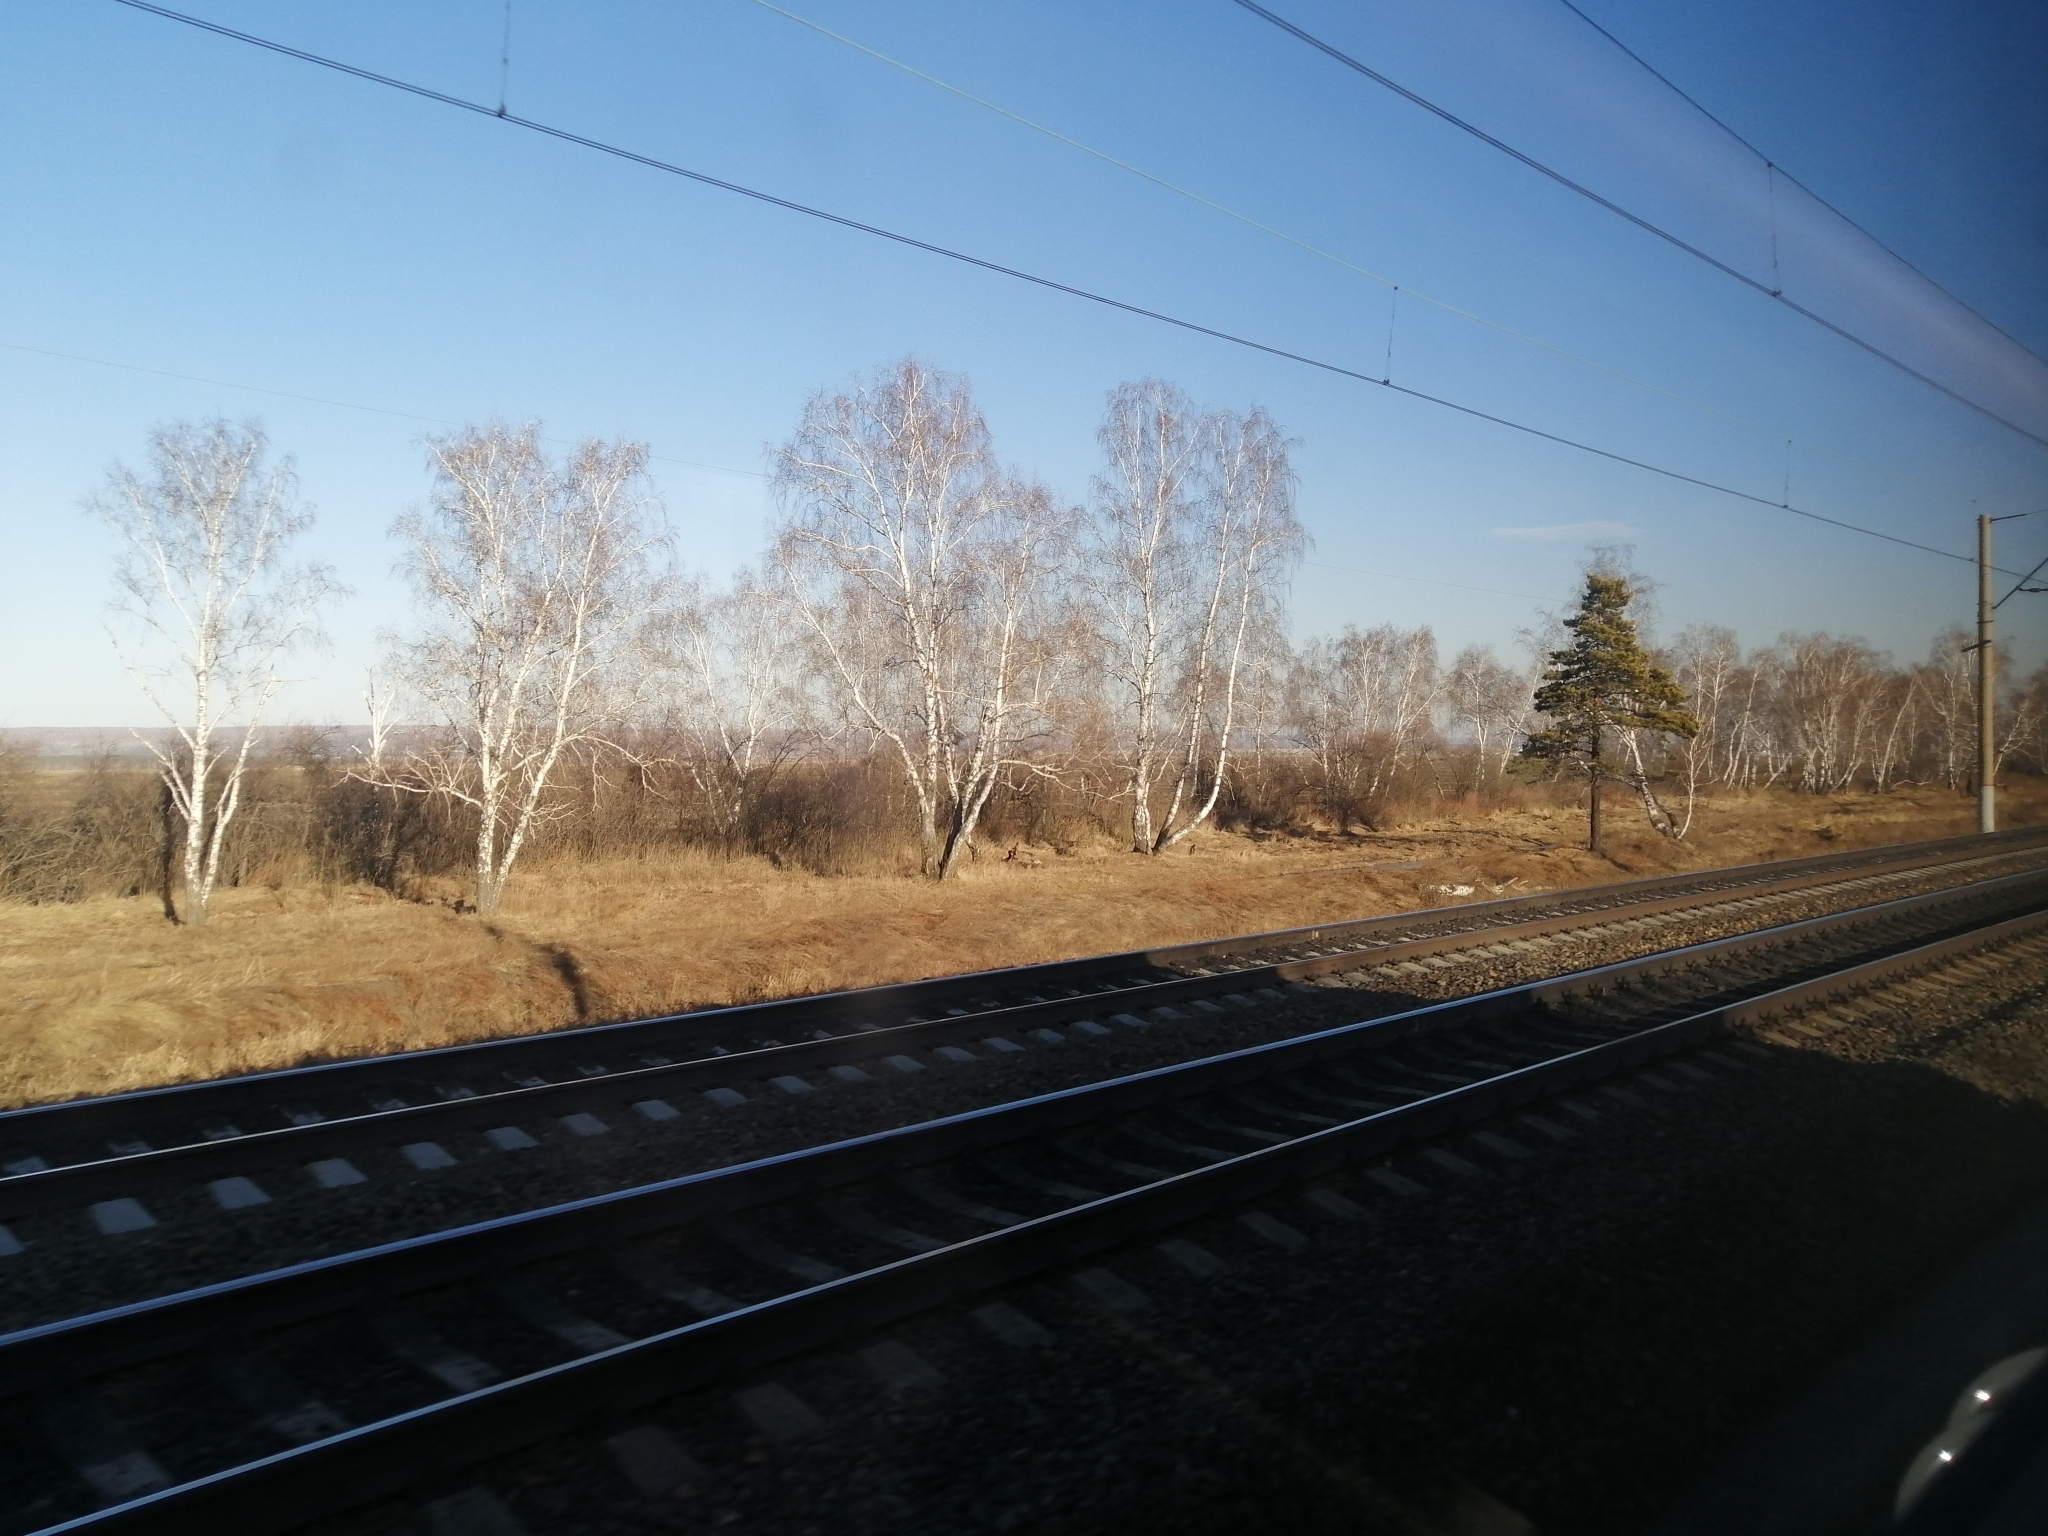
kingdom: Plantae
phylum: Tracheophyta
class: Pinopsida
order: Pinales
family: Pinaceae
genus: Pinus
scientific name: Pinus sylvestris
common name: Scots pine
